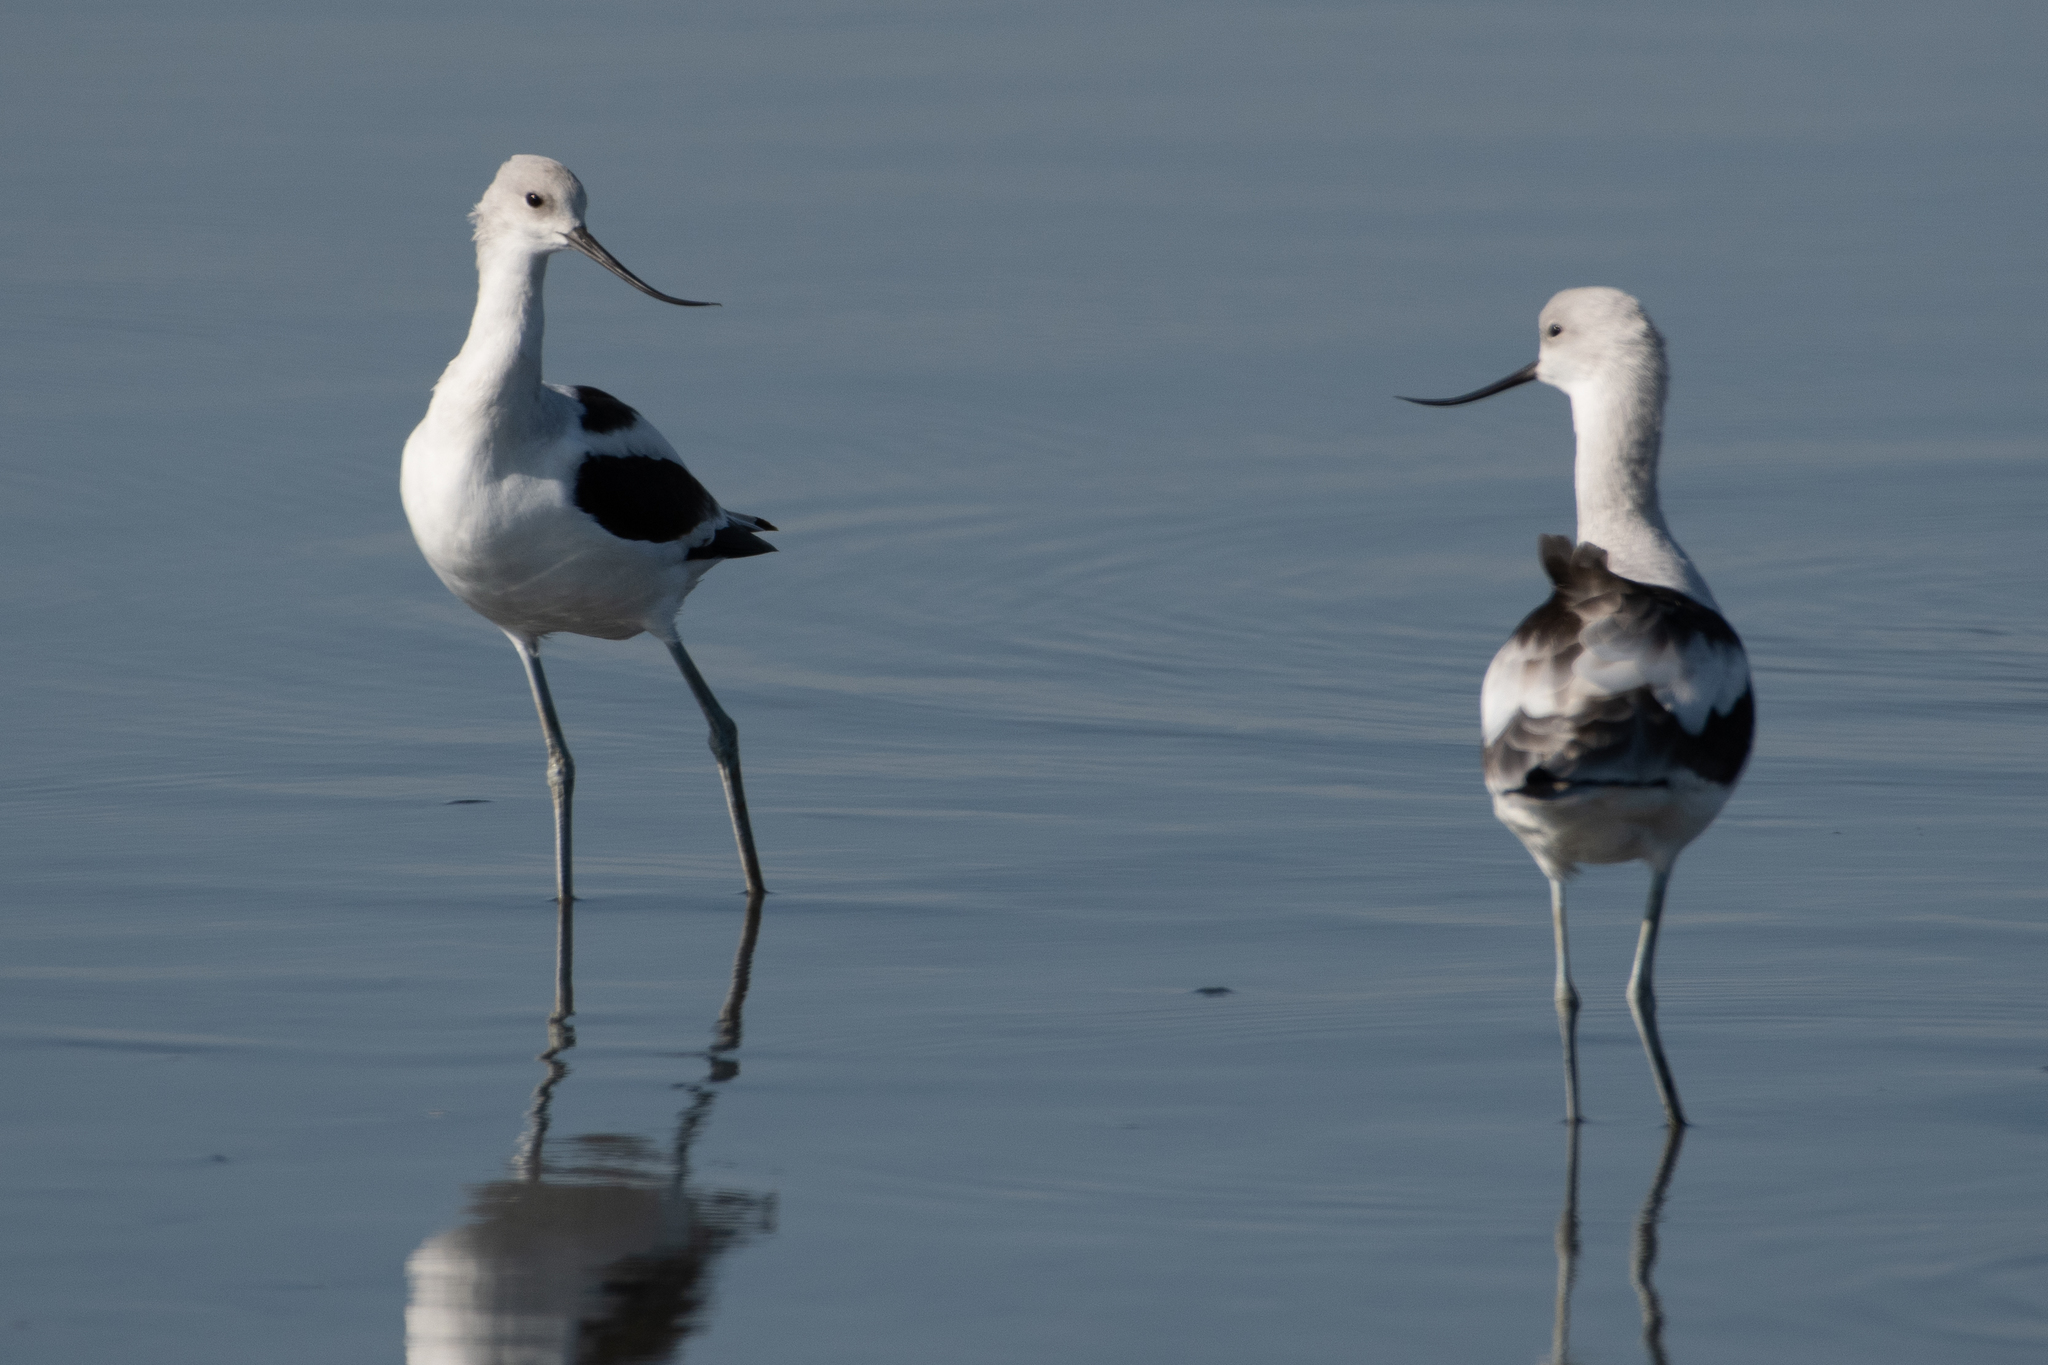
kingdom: Animalia
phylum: Chordata
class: Aves
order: Charadriiformes
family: Recurvirostridae
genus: Recurvirostra
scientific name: Recurvirostra americana
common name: American avocet
